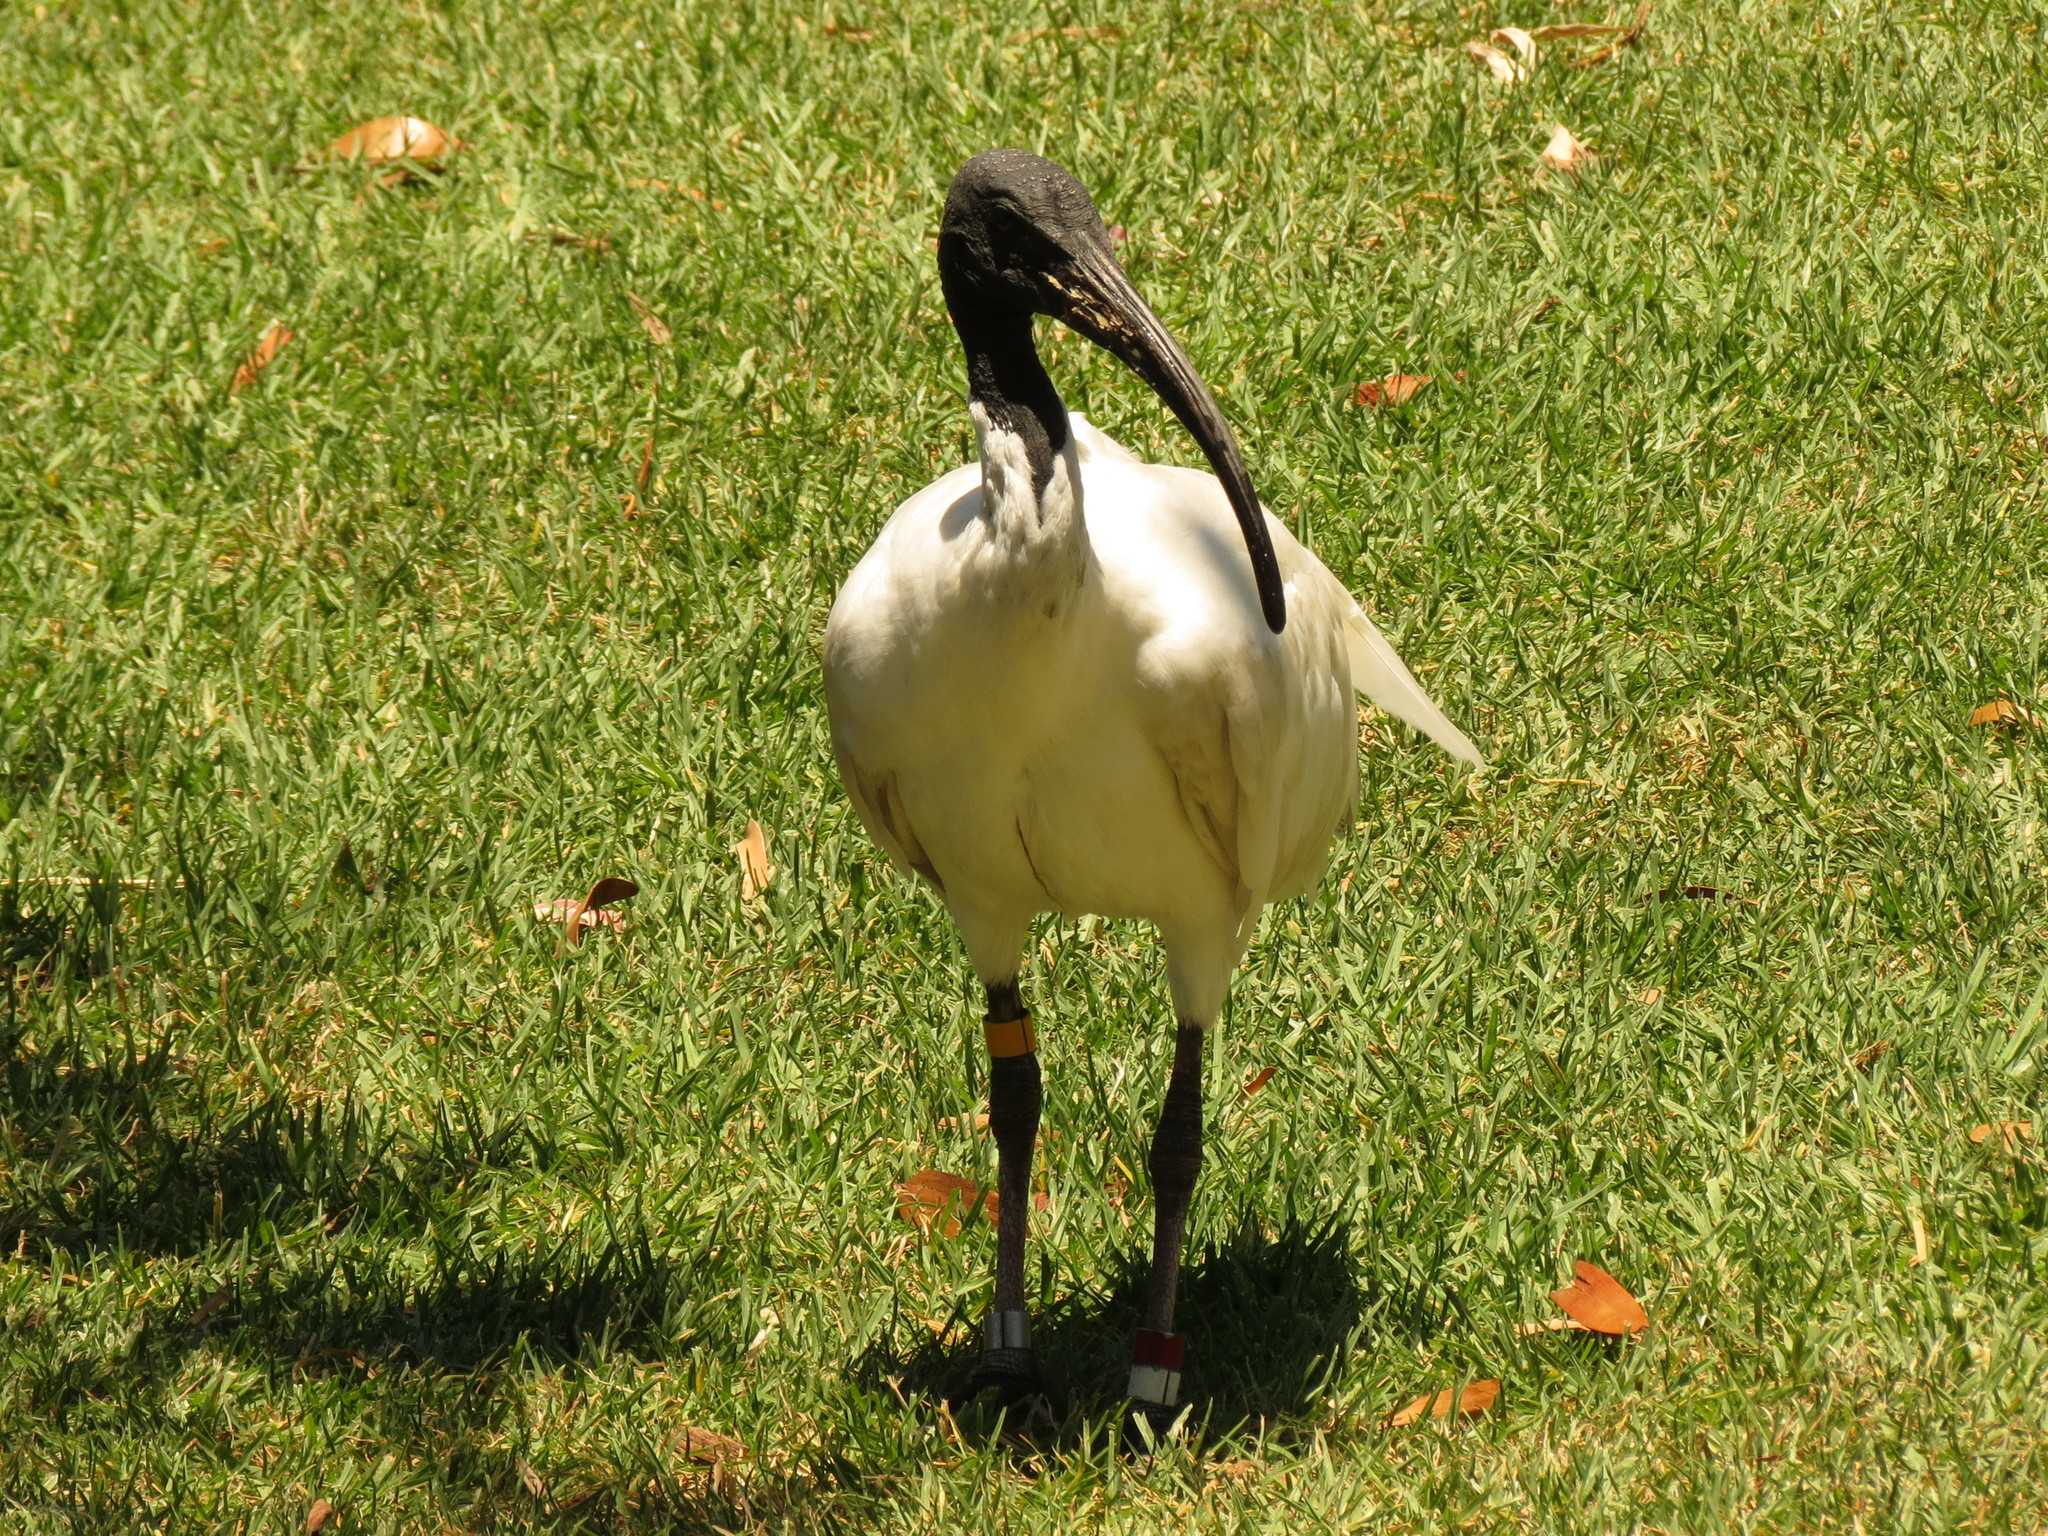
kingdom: Animalia
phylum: Chordata
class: Aves
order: Pelecaniformes
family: Threskiornithidae
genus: Threskiornis
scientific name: Threskiornis molucca
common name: Australian white ibis
